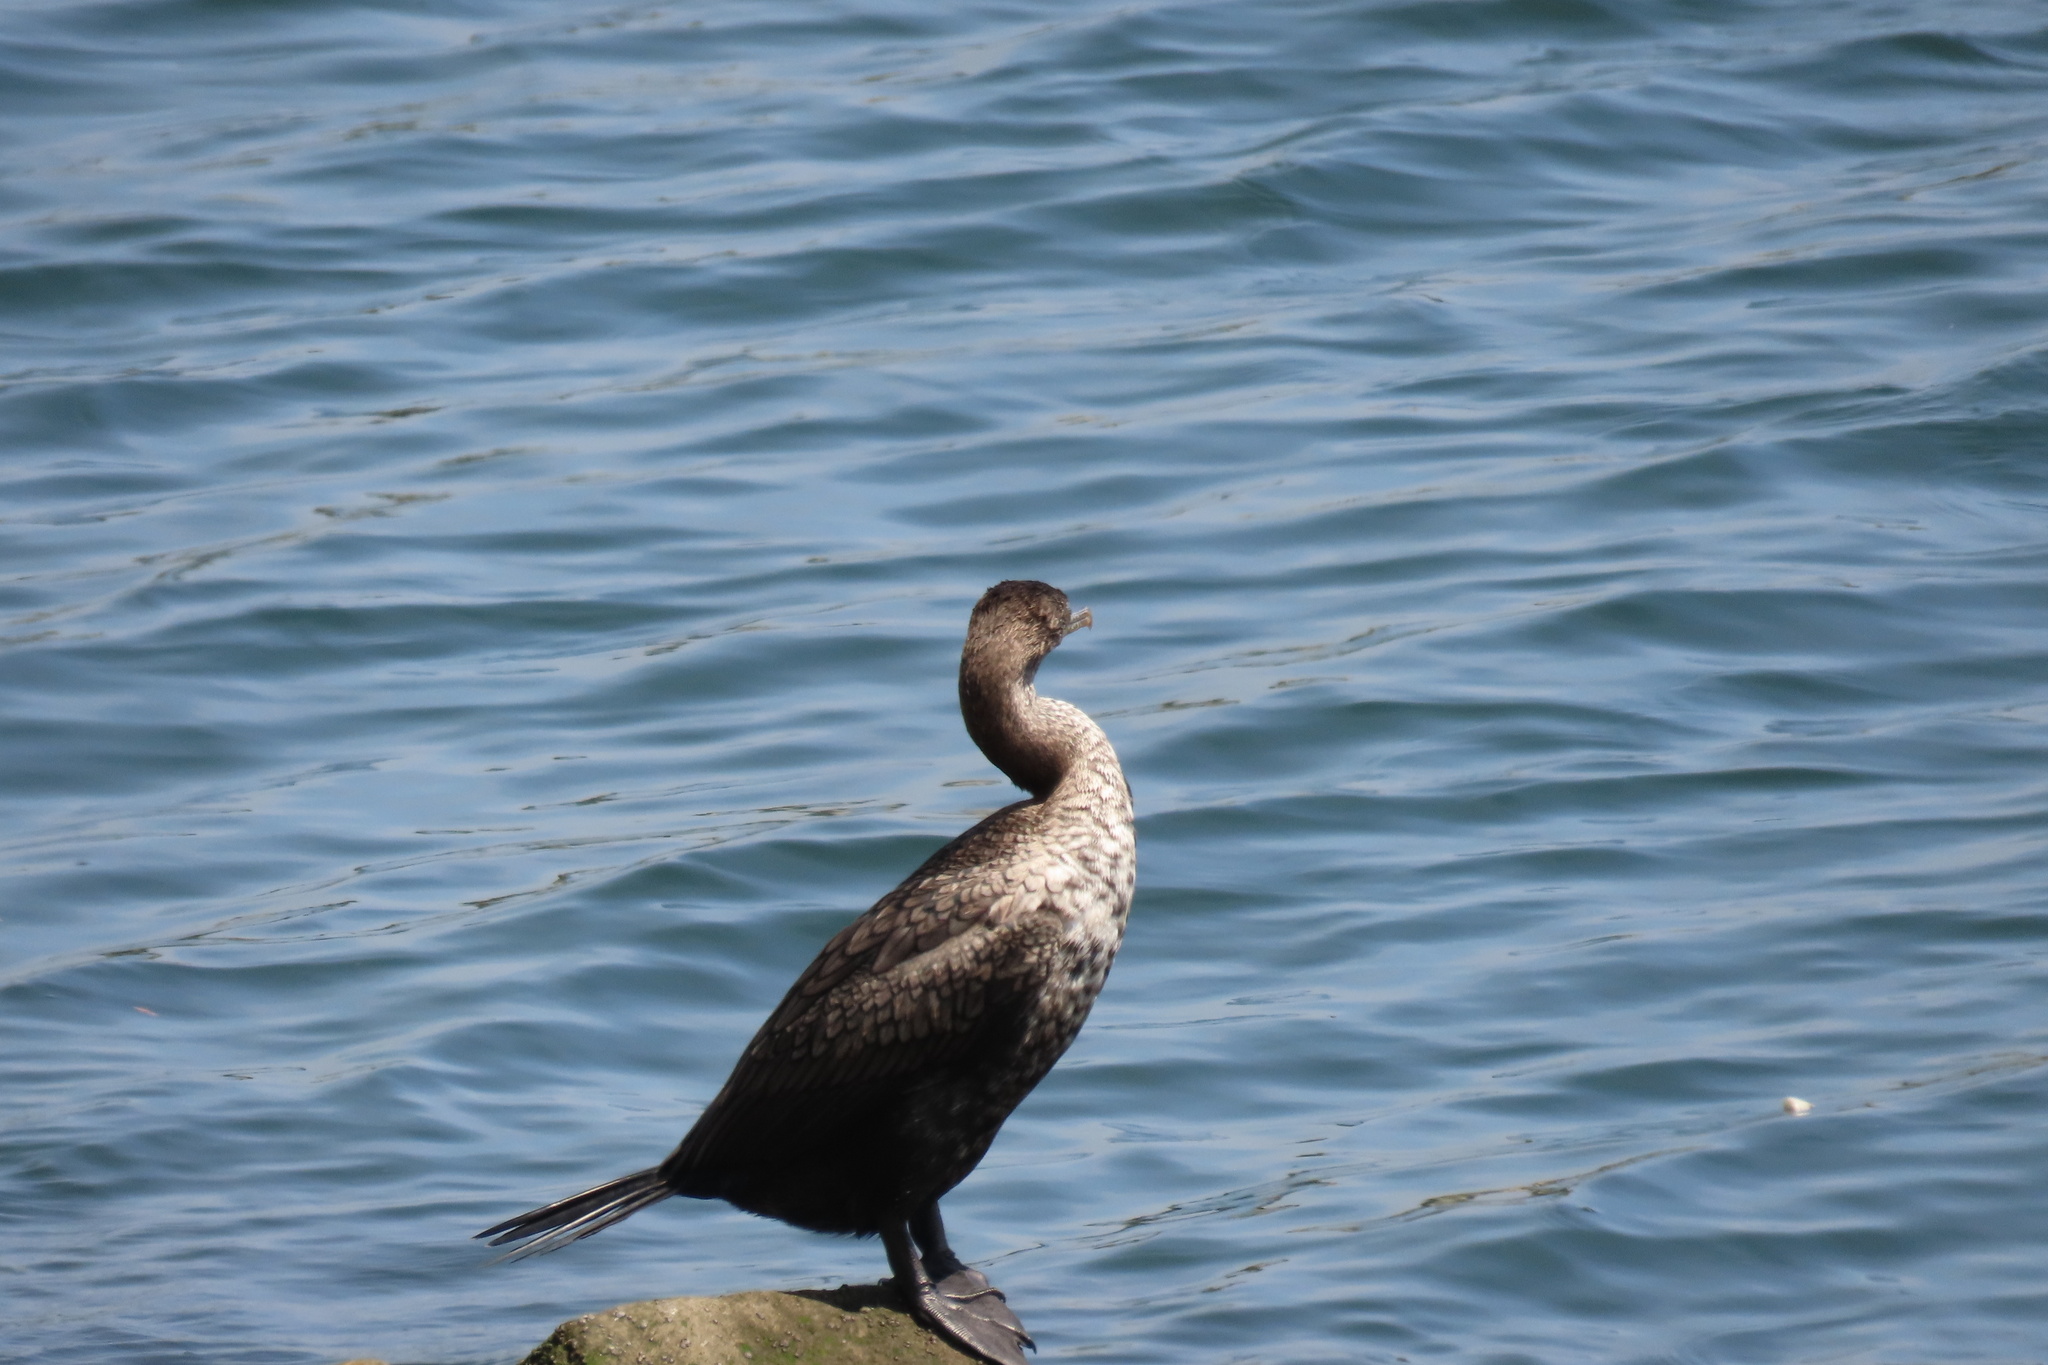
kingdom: Animalia
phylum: Chordata
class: Aves
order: Suliformes
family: Phalacrocoracidae
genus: Phalacrocorax
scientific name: Phalacrocorax auritus
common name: Double-crested cormorant
